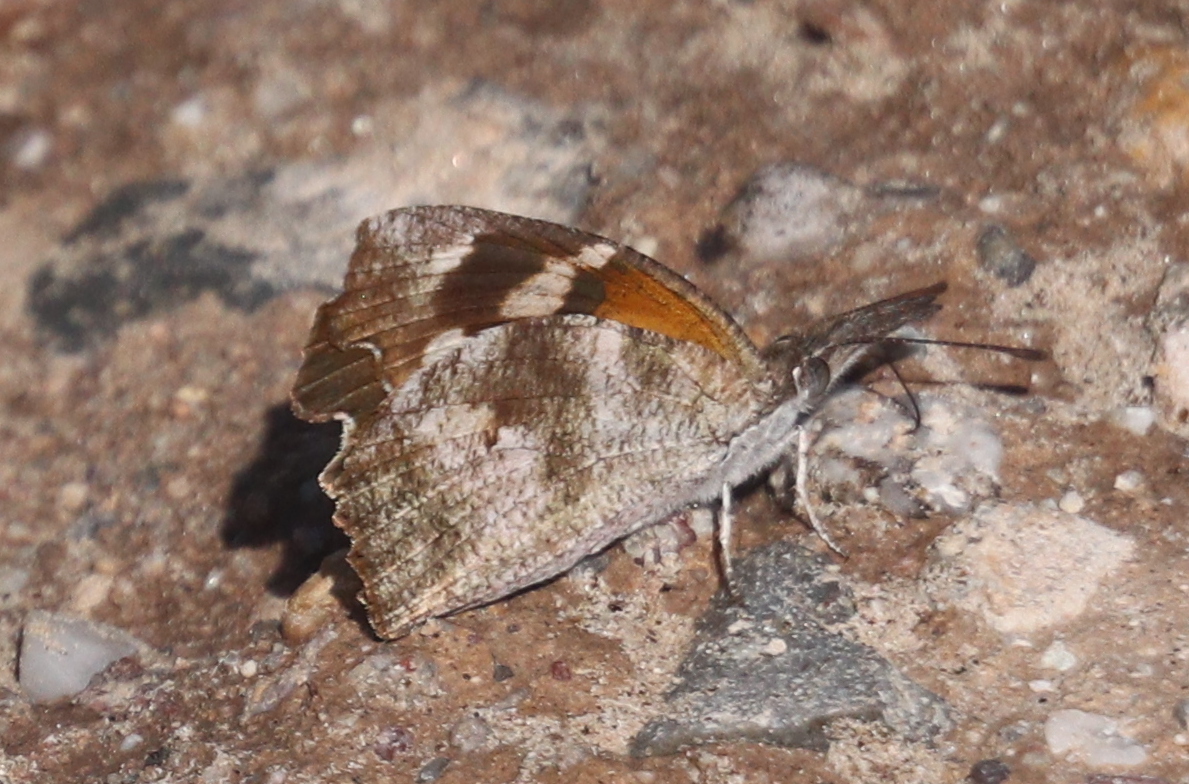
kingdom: Animalia
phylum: Arthropoda
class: Insecta
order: Lepidoptera
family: Nymphalidae
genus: Libytheana
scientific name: Libytheana carinenta
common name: American snout
